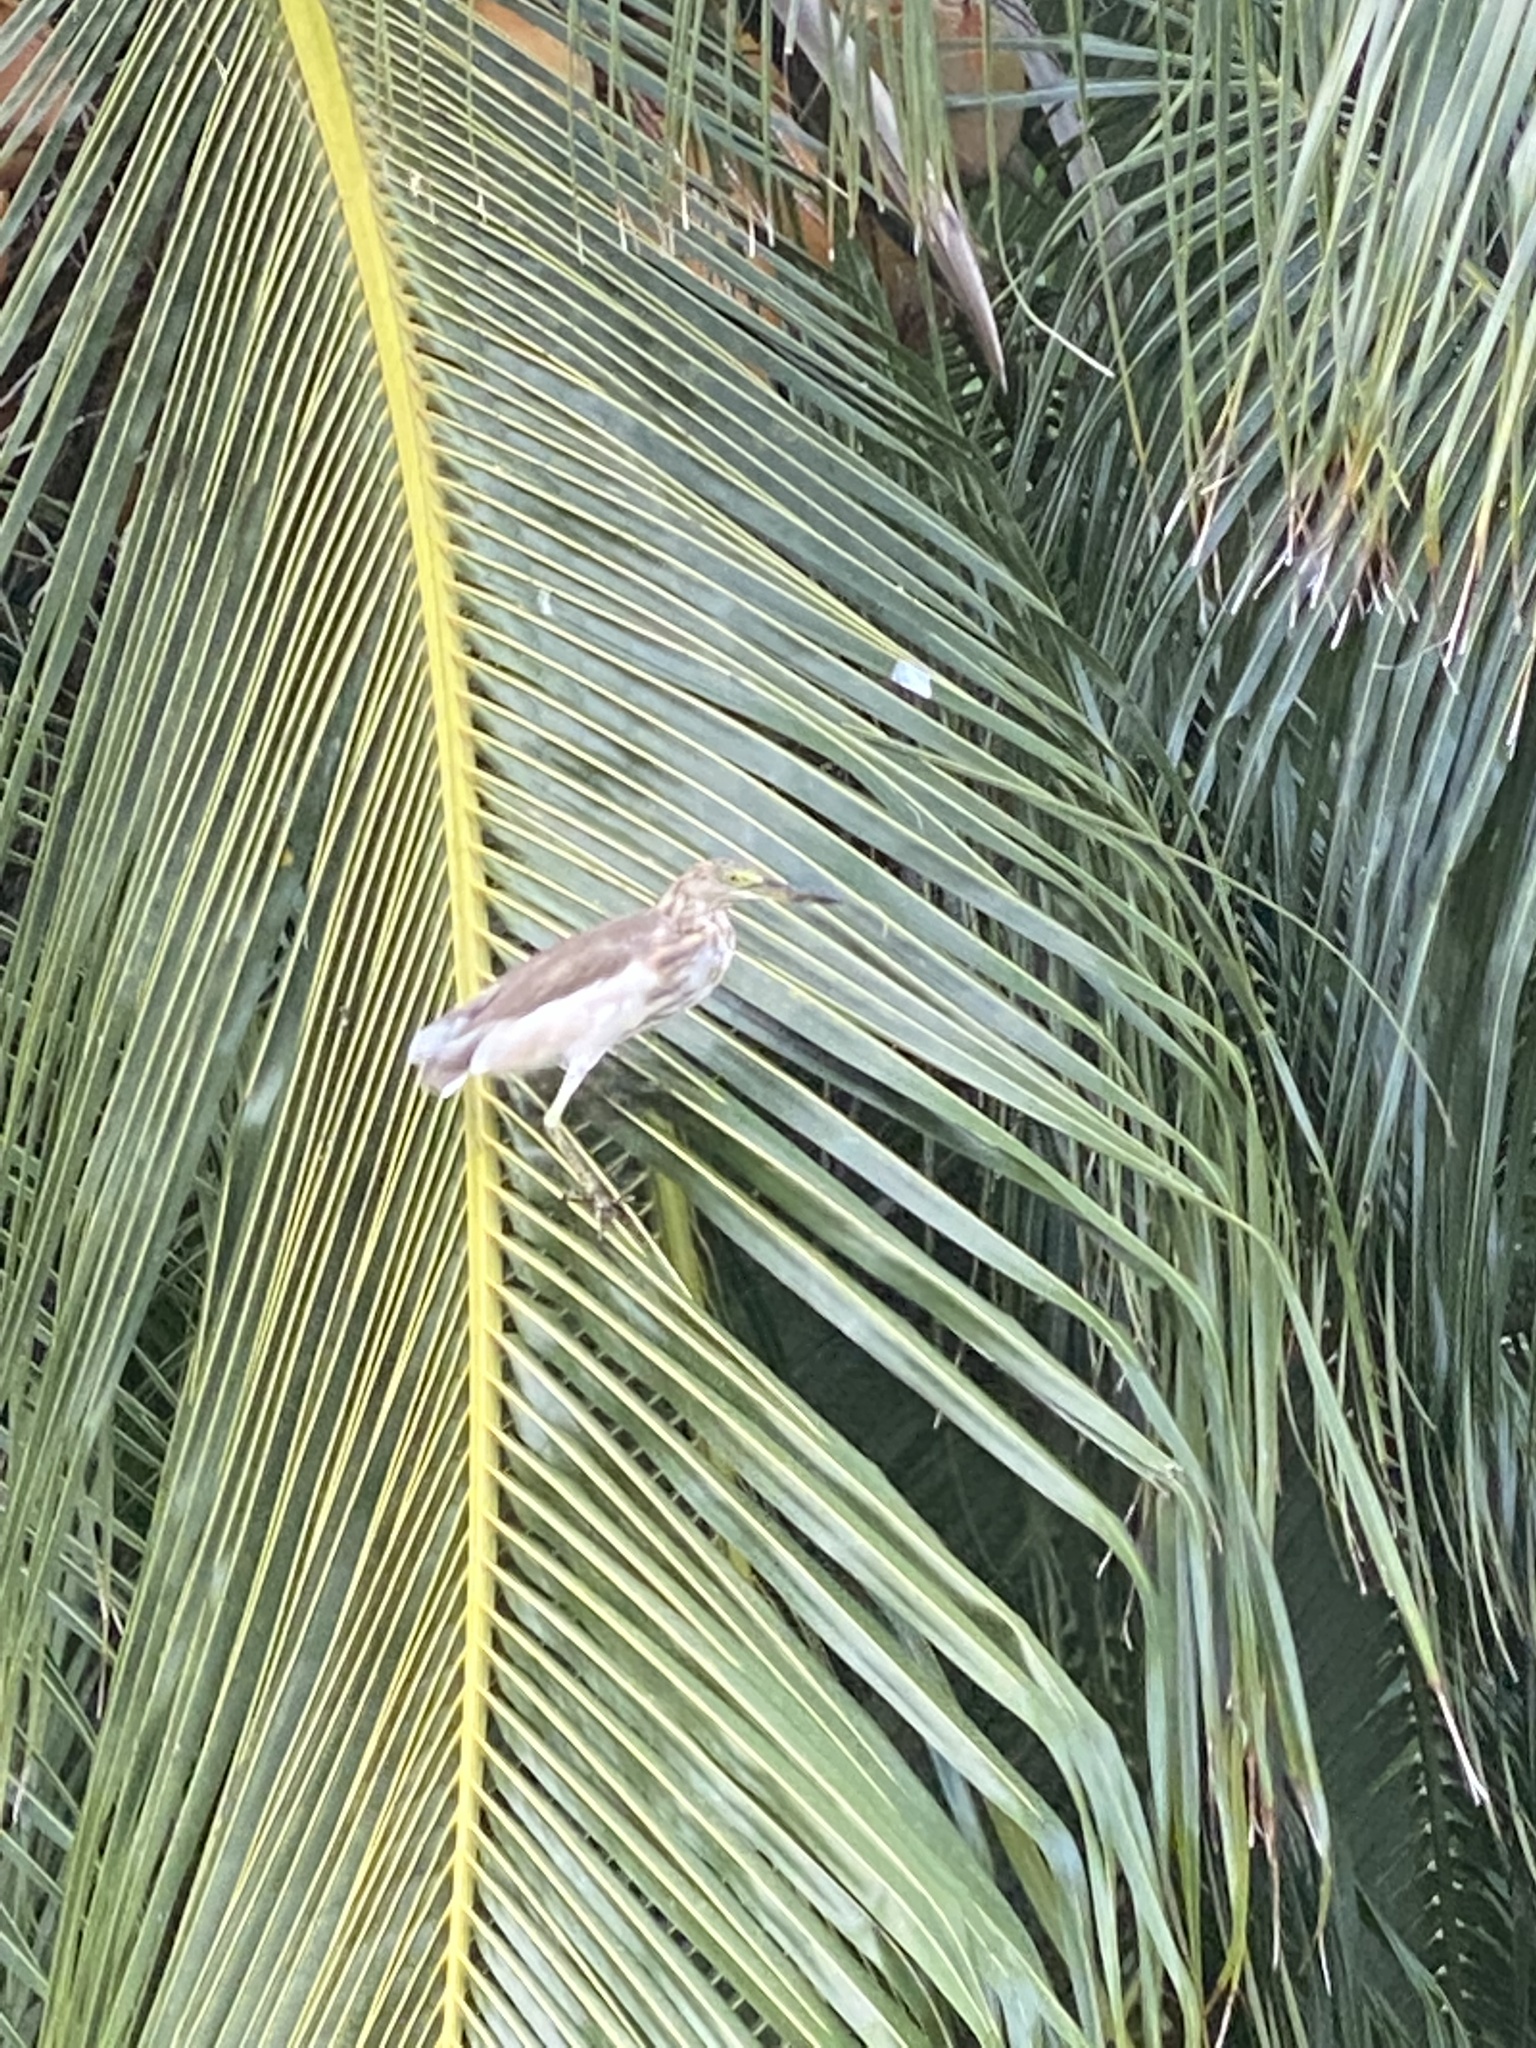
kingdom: Animalia
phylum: Chordata
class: Aves
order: Pelecaniformes
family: Ardeidae
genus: Ardeola
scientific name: Ardeola grayii
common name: Indian pond heron
